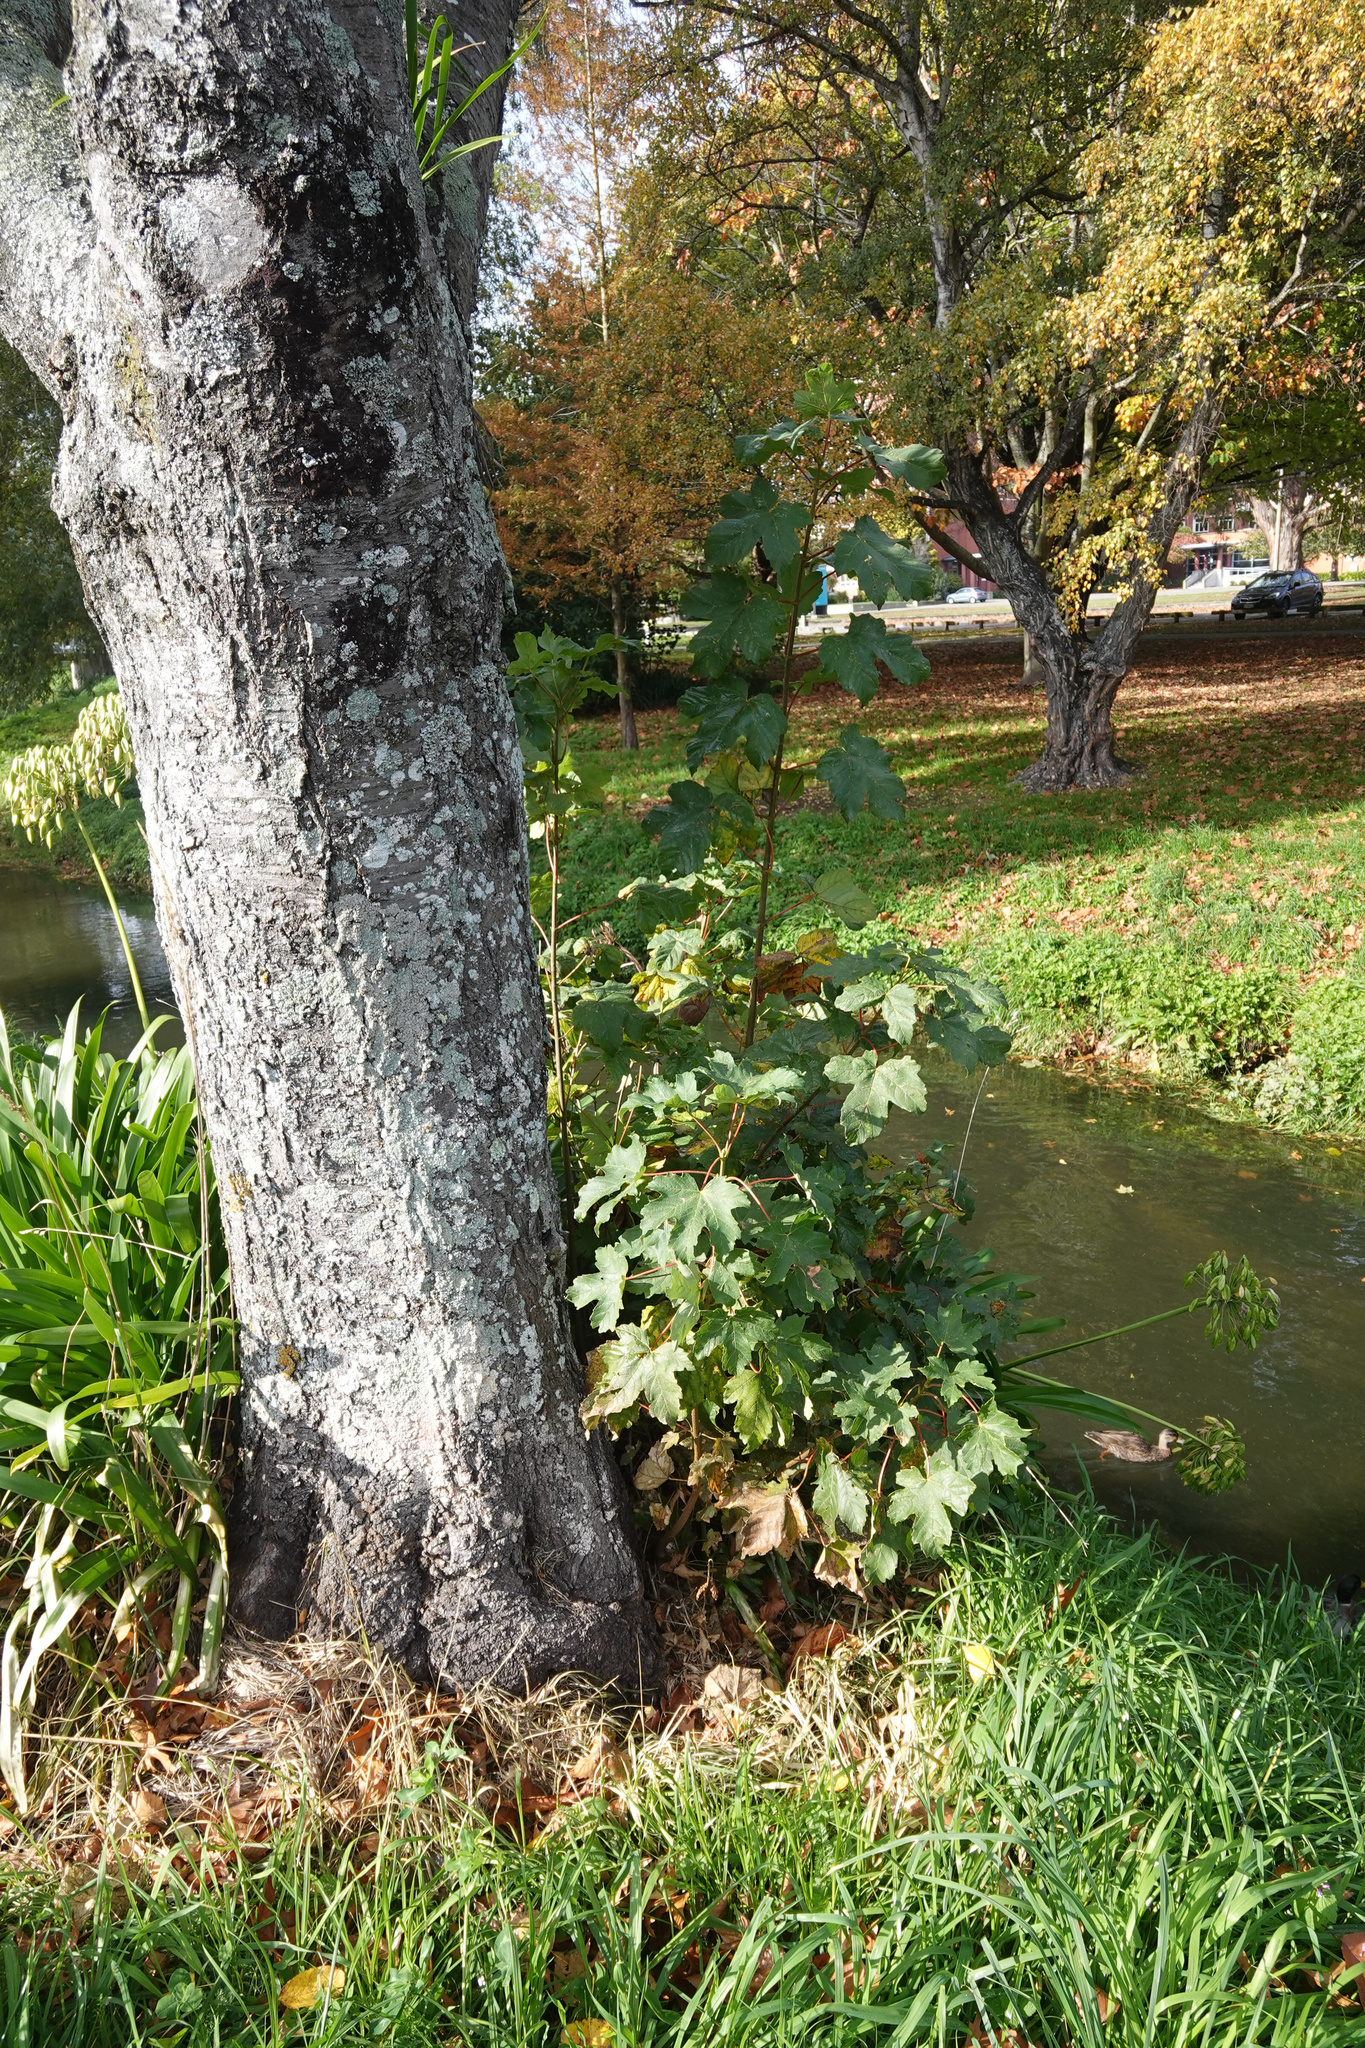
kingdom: Plantae
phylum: Tracheophyta
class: Magnoliopsida
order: Sapindales
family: Sapindaceae
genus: Acer
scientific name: Acer pseudoplatanus
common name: Sycamore
